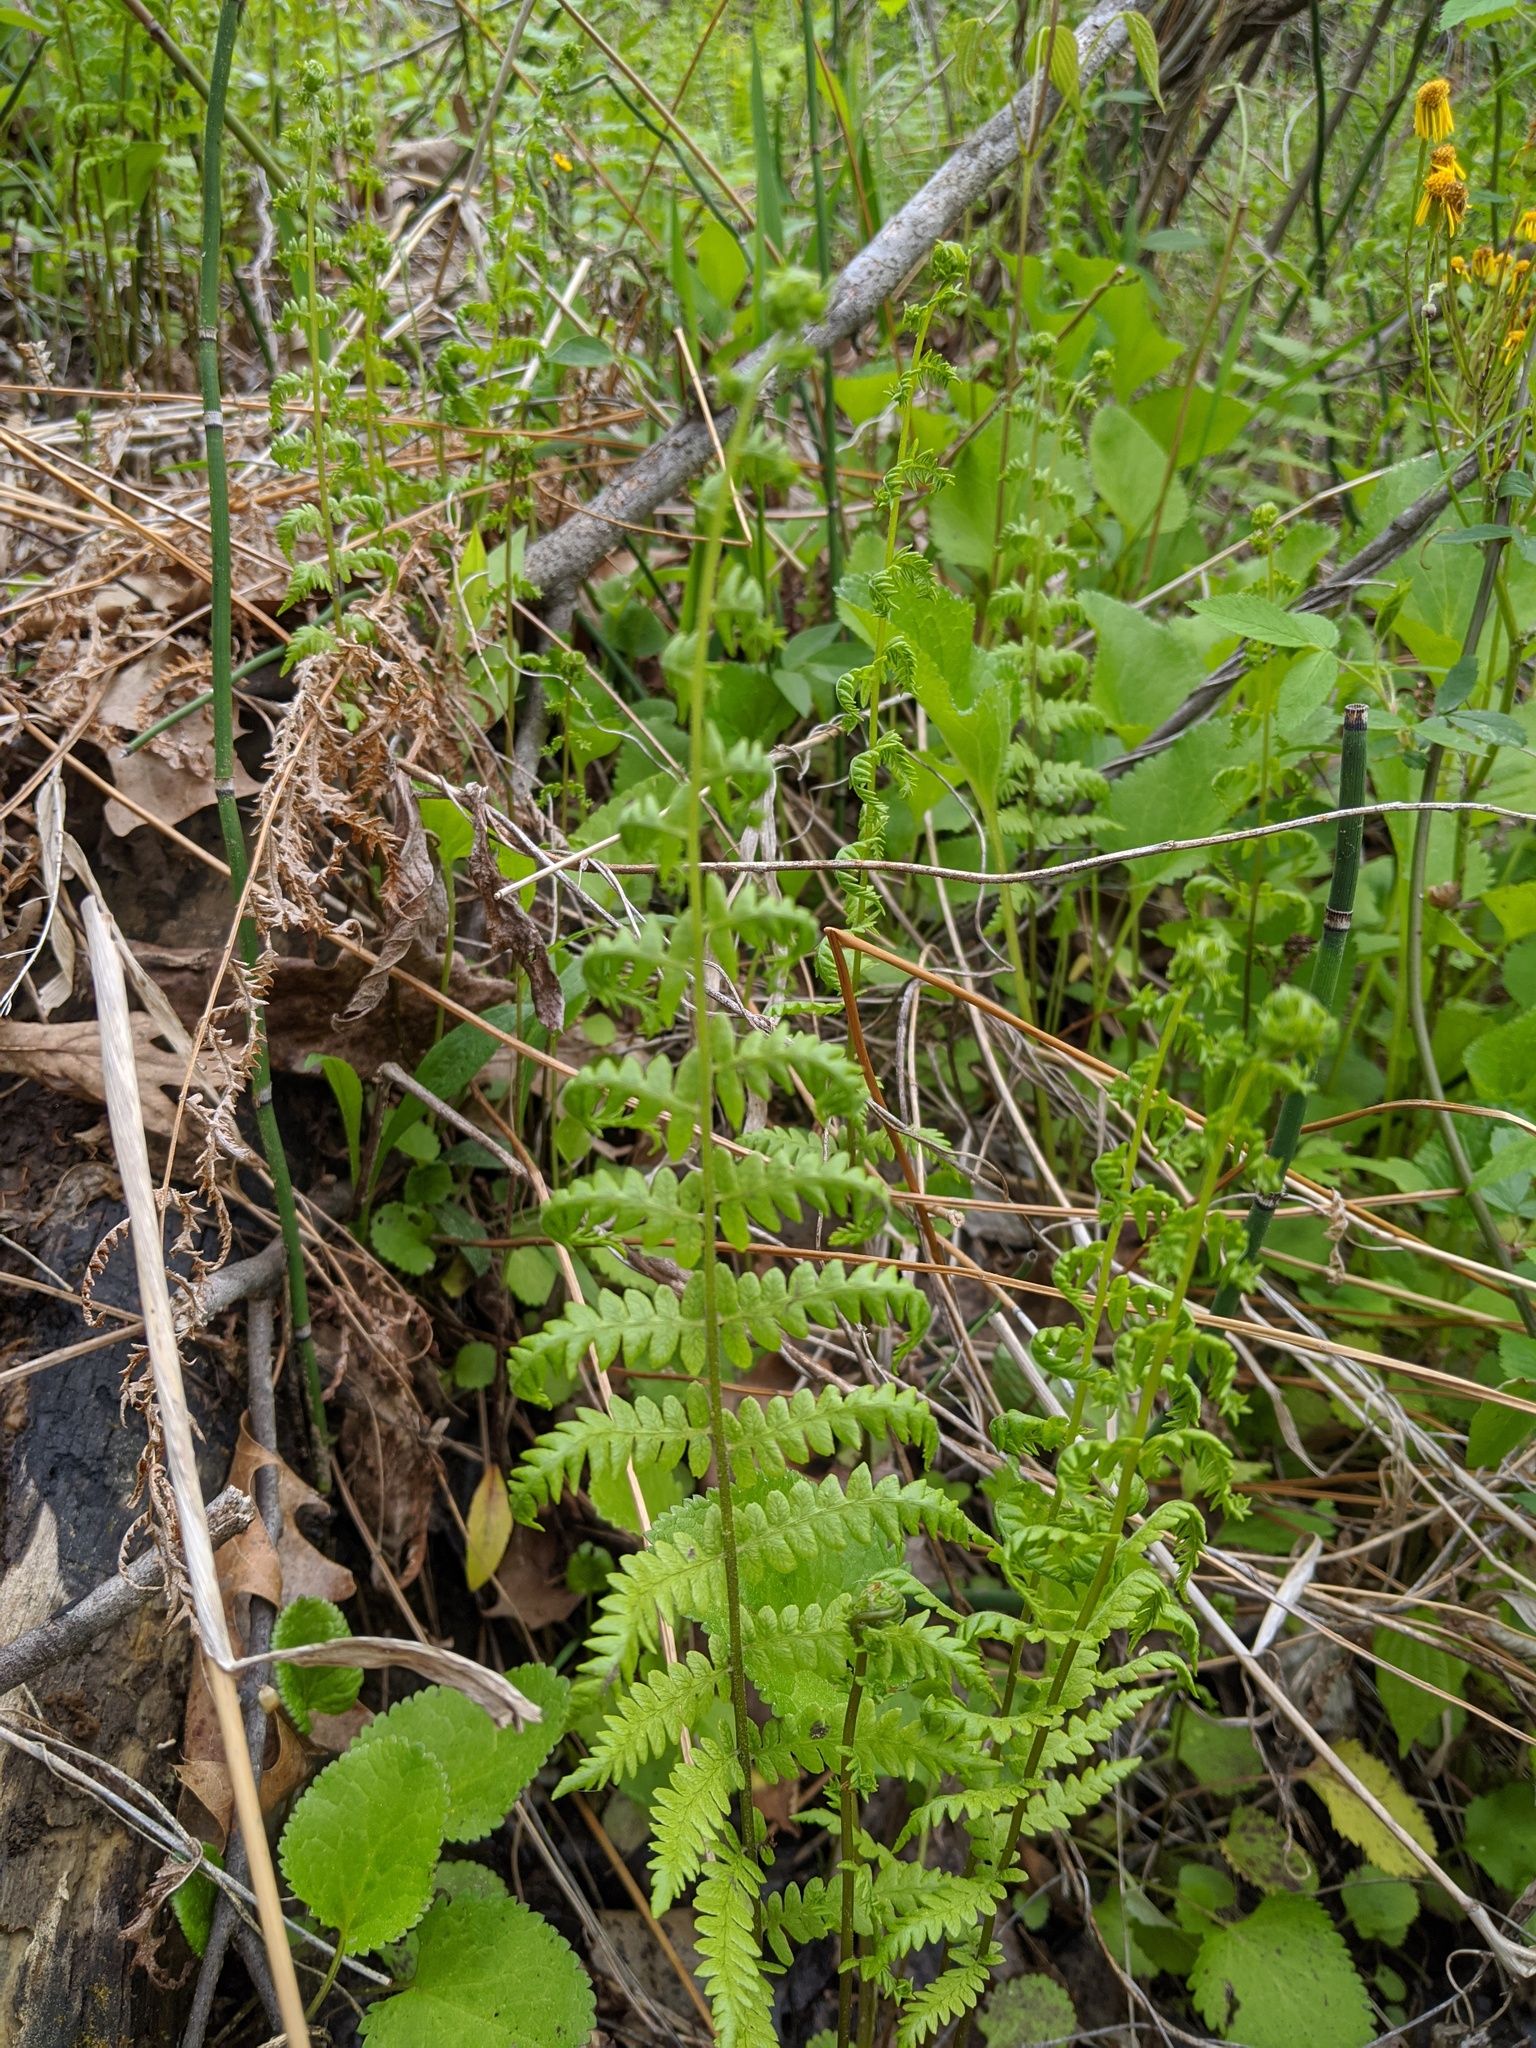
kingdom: Plantae
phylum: Tracheophyta
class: Polypodiopsida
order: Polypodiales
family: Thelypteridaceae
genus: Thelypteris
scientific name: Thelypteris palustris
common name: Marsh fern
